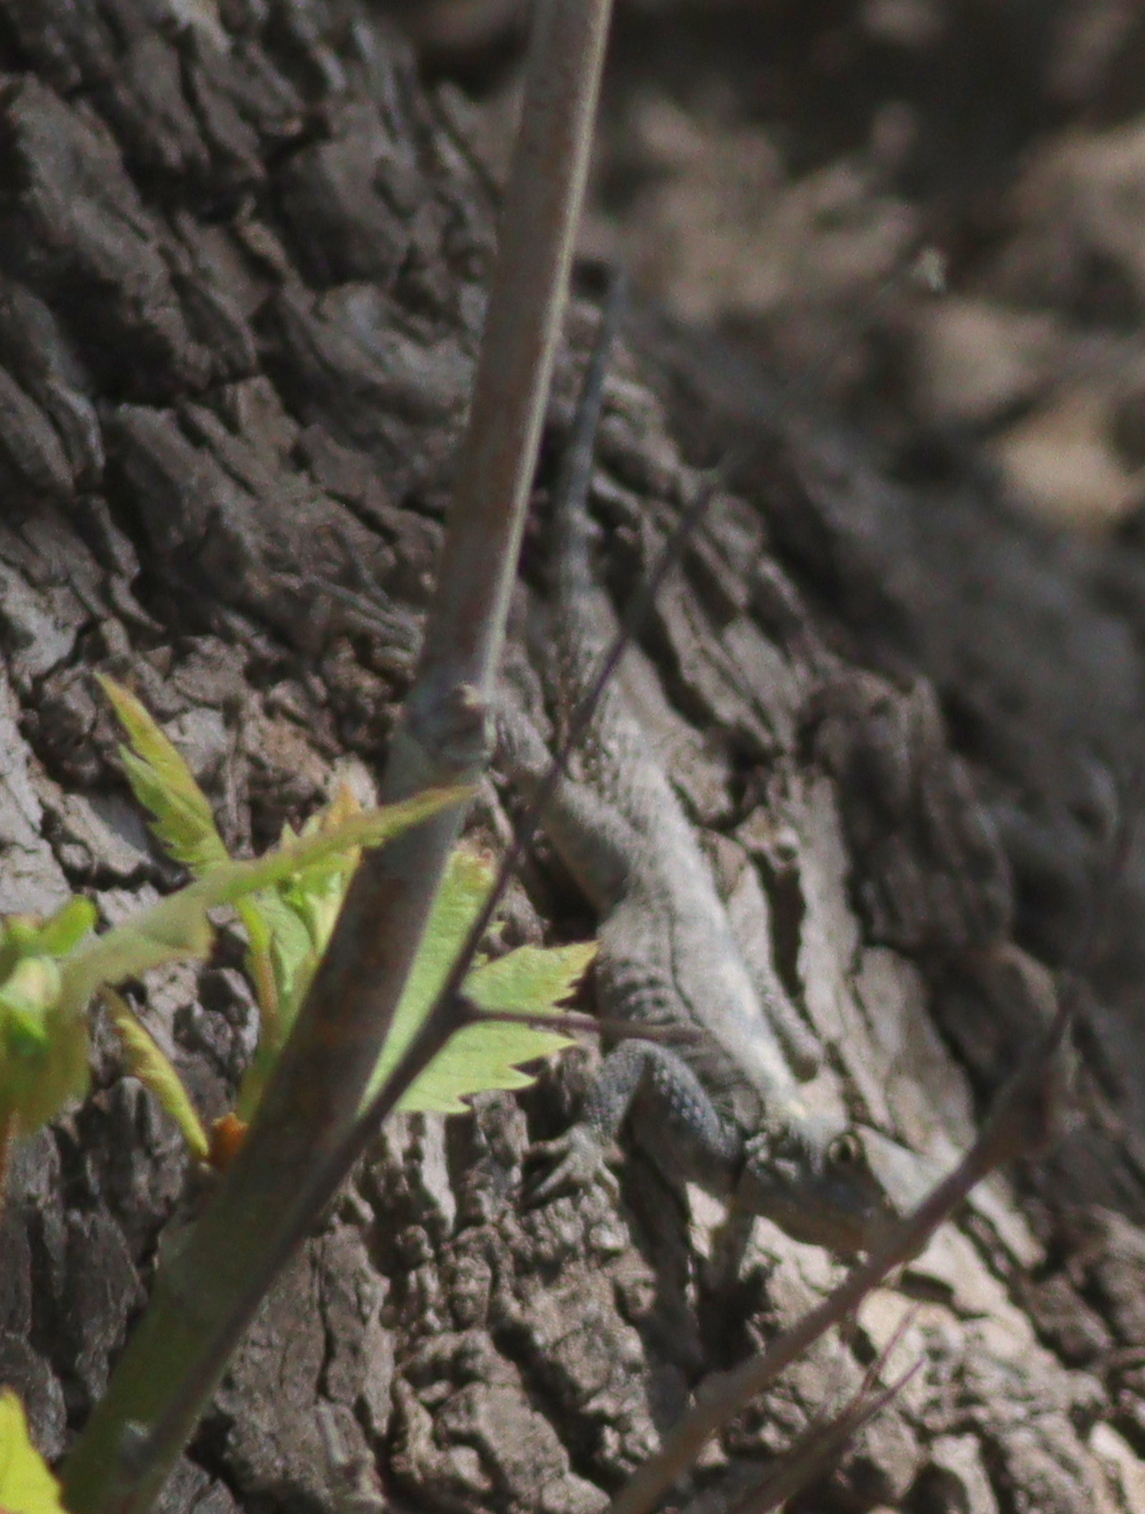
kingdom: Animalia
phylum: Chordata
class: Squamata
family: Agamidae
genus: Stellagama
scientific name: Stellagama stellio
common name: Starred agama
